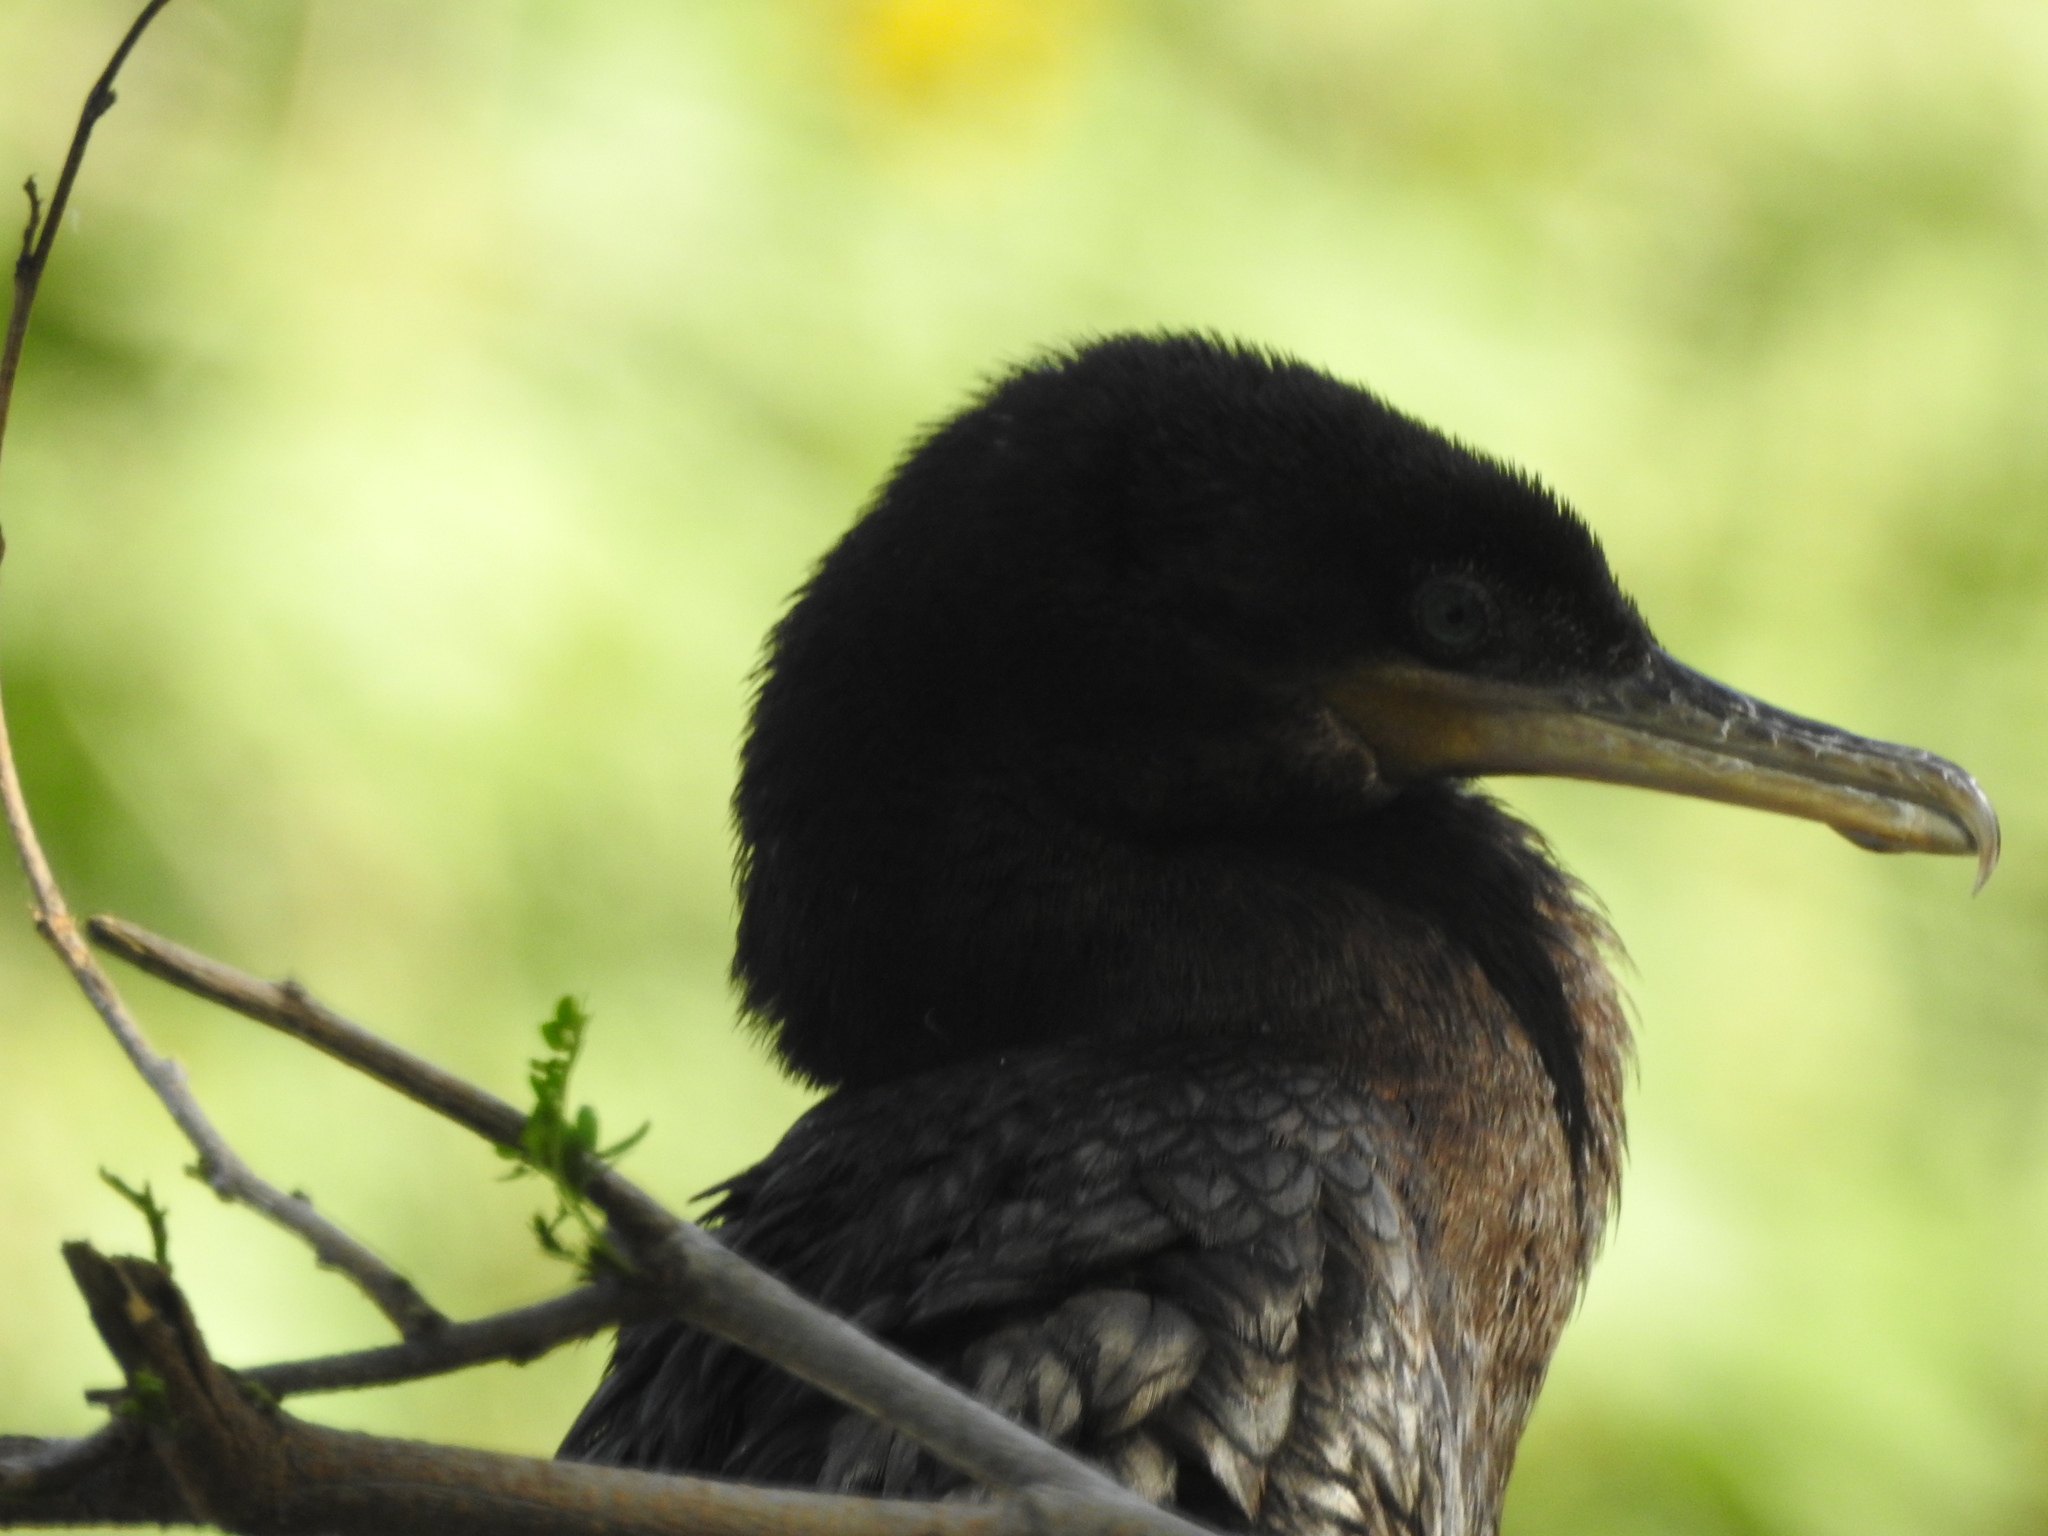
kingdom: Animalia
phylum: Chordata
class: Aves
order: Suliformes
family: Phalacrocoracidae
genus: Phalacrocorax
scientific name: Phalacrocorax brasilianus
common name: Neotropic cormorant
